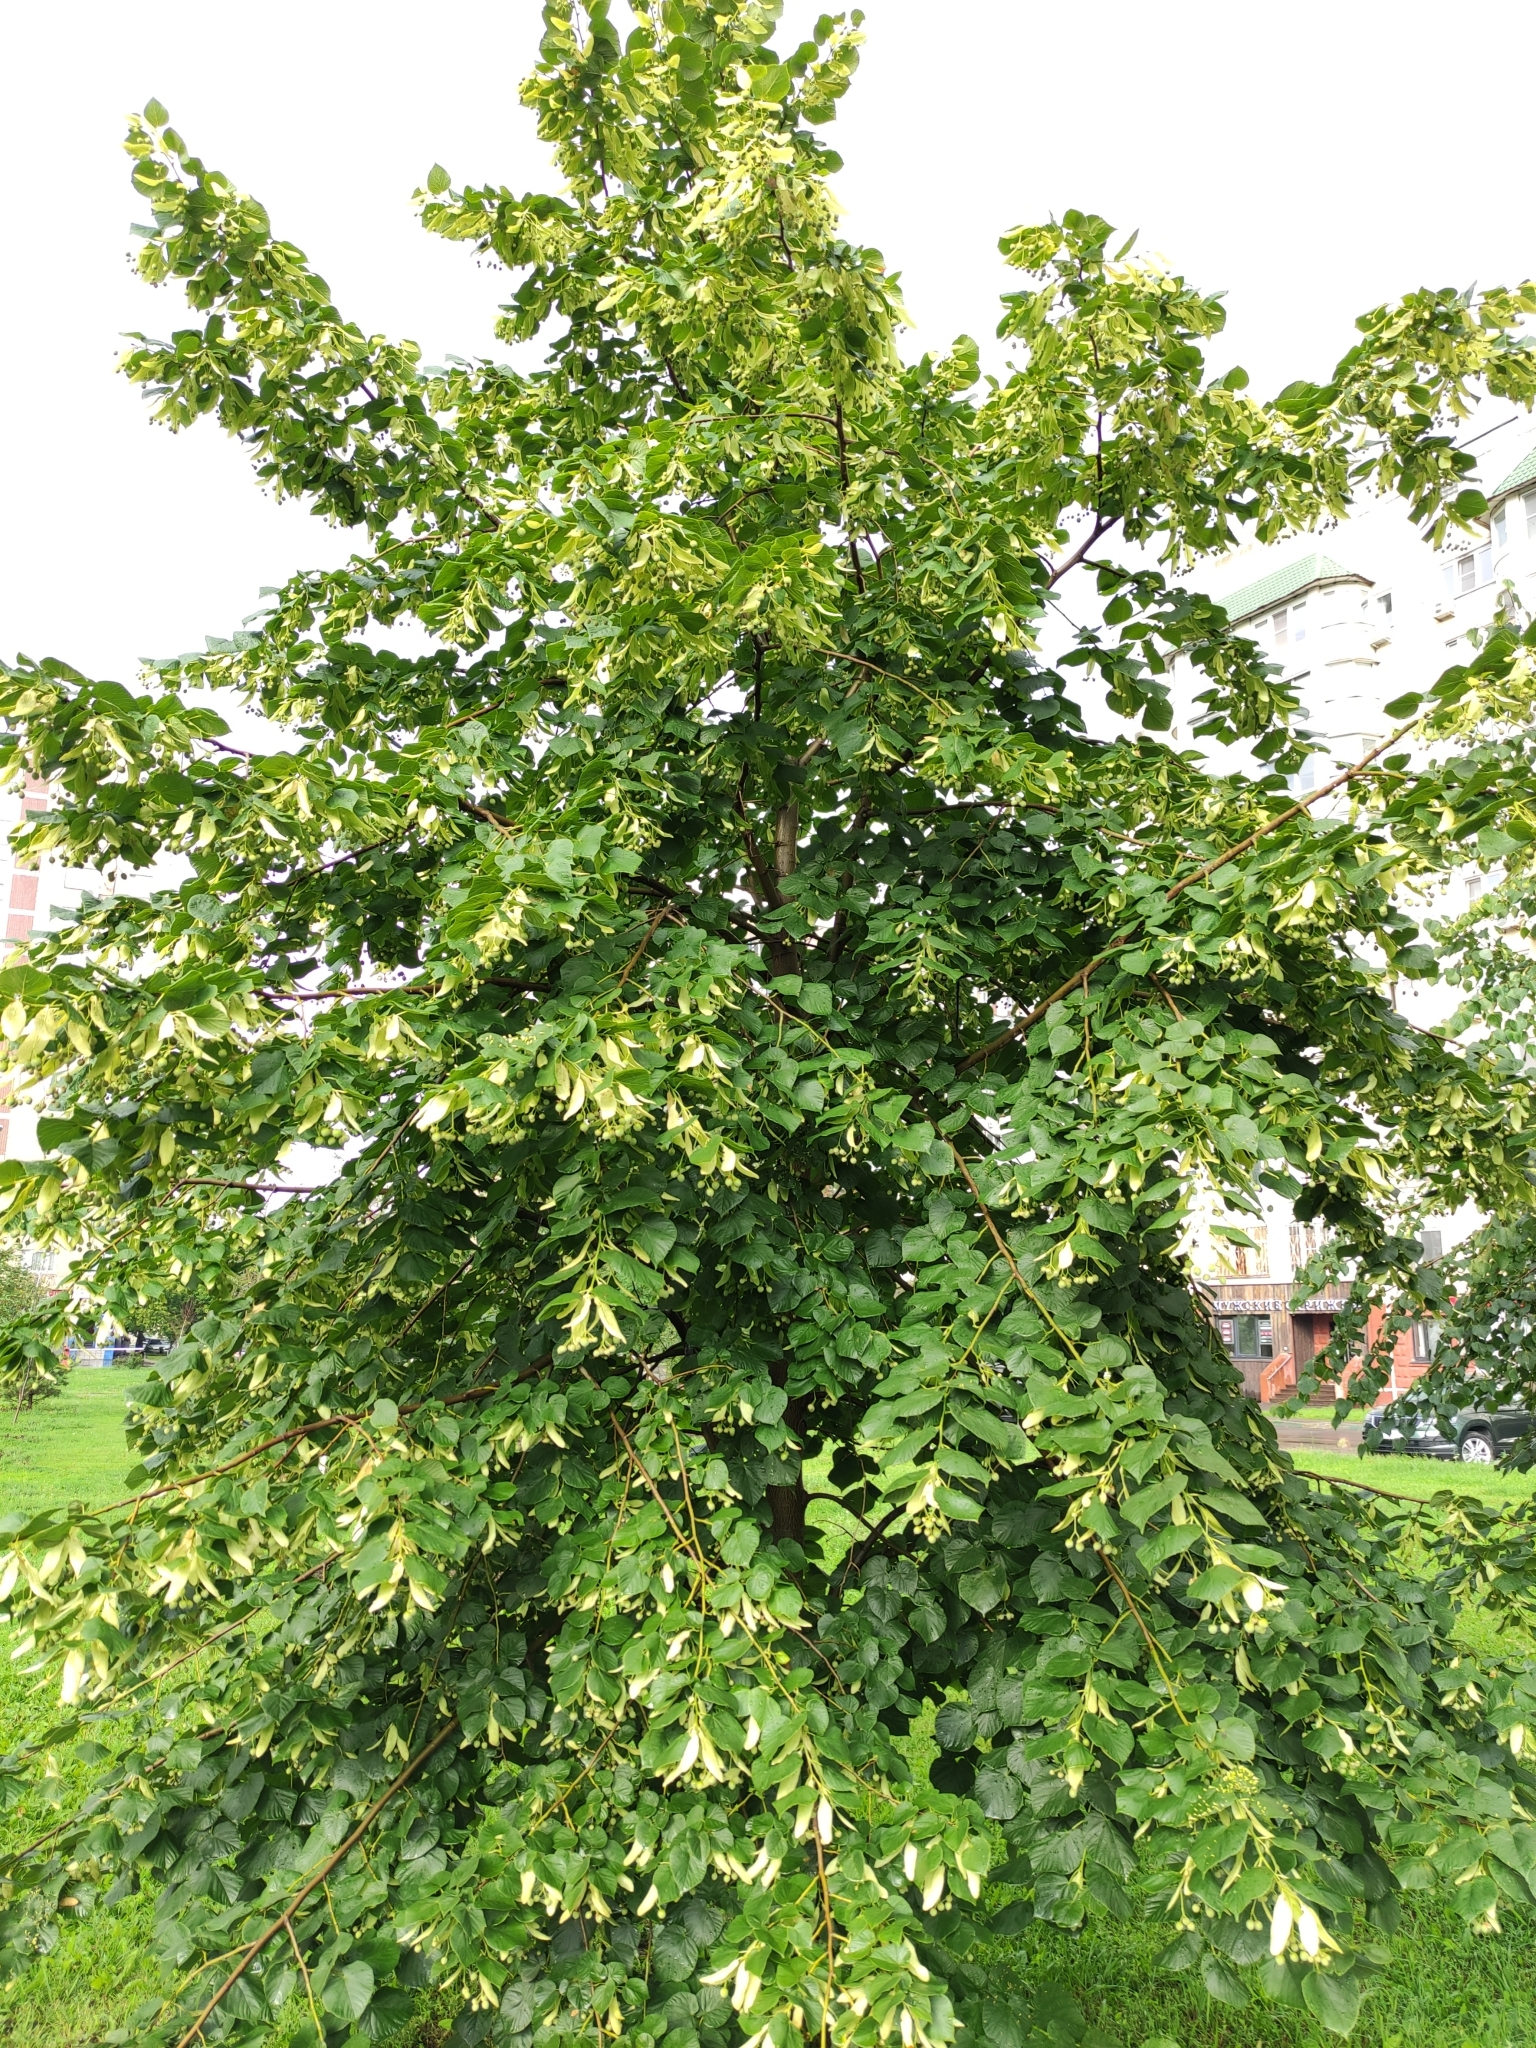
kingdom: Plantae
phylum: Tracheophyta
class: Magnoliopsida
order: Malvales
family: Malvaceae
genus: Tilia
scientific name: Tilia cordata
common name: Small-leaved lime
